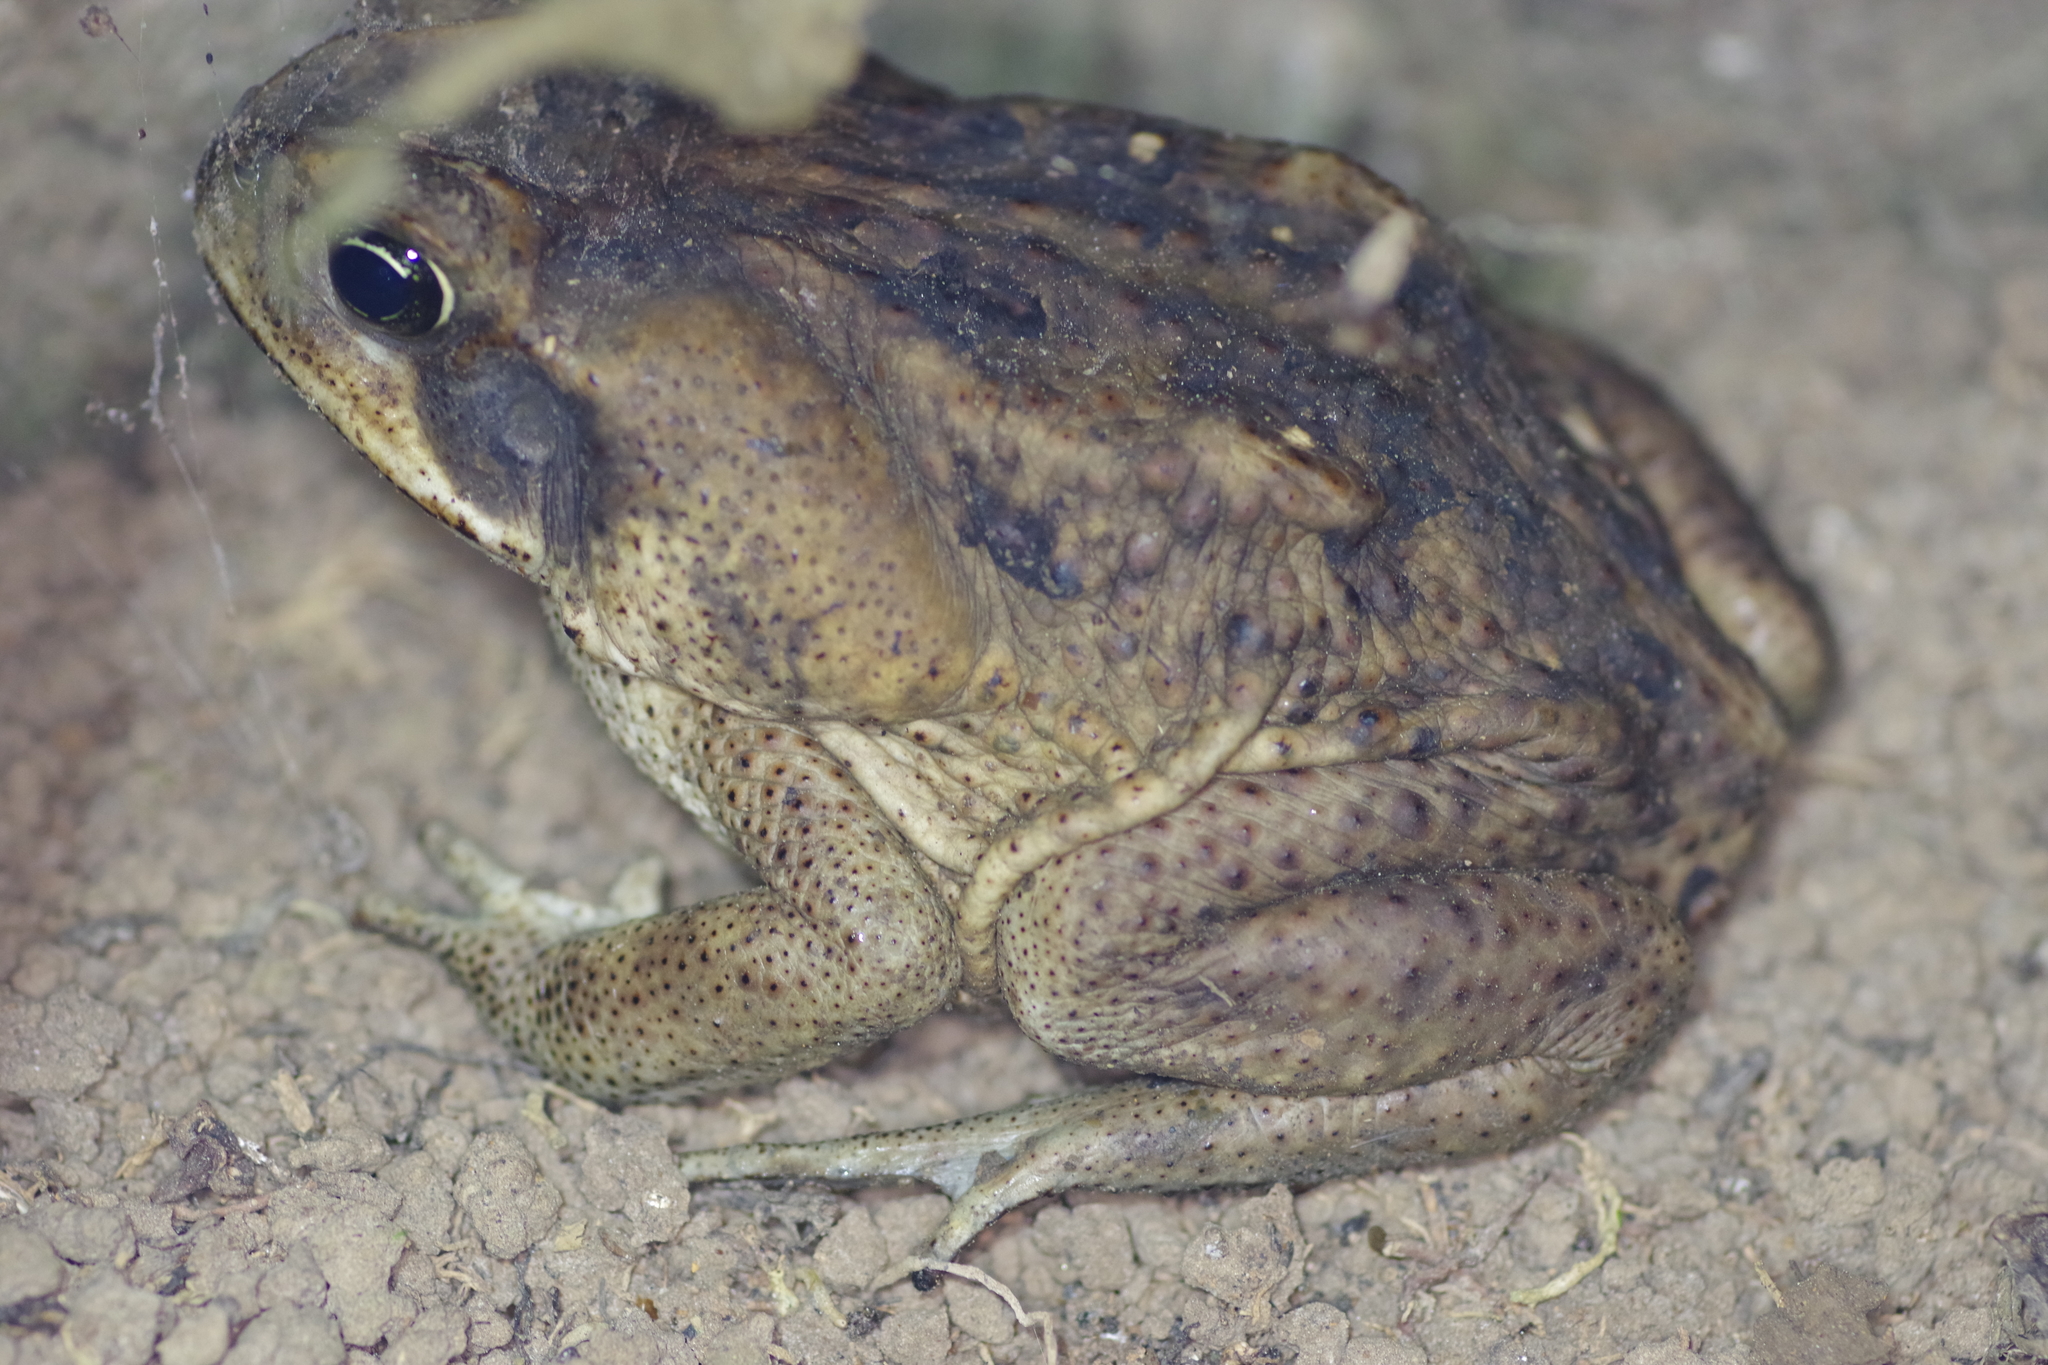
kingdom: Animalia
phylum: Chordata
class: Amphibia
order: Anura
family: Bufonidae
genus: Rhinella
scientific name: Rhinella horribilis
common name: Mesoamerican cane toad
